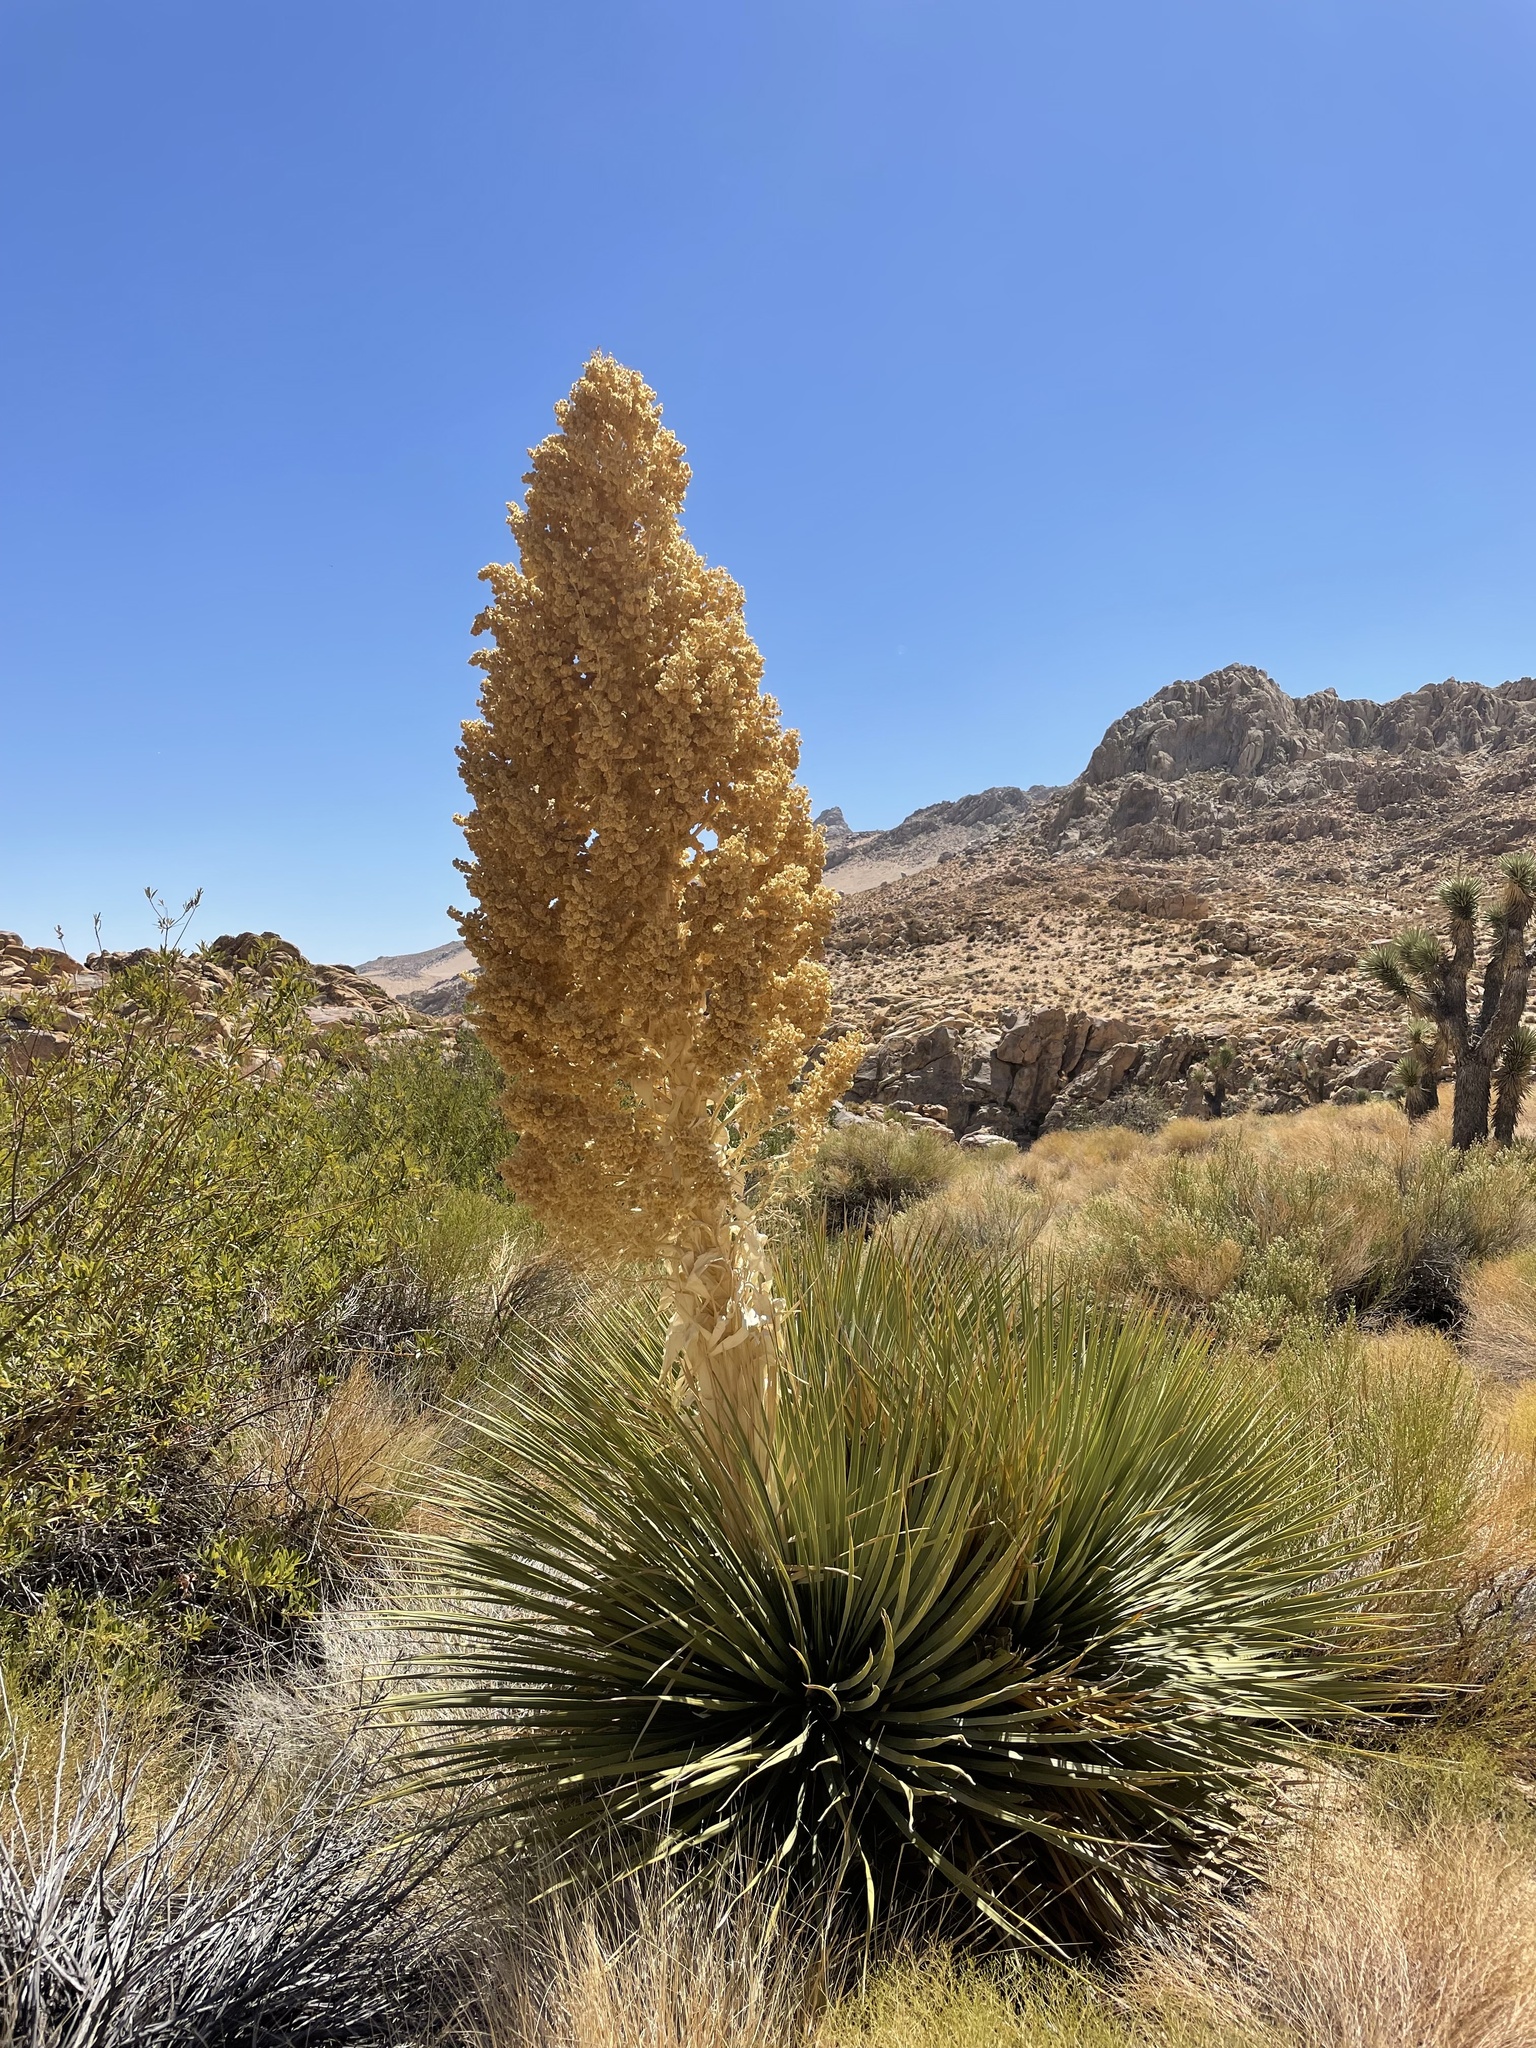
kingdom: Plantae
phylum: Tracheophyta
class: Liliopsida
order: Asparagales
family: Asparagaceae
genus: Nolina
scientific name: Nolina parryi
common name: Parry nolina
